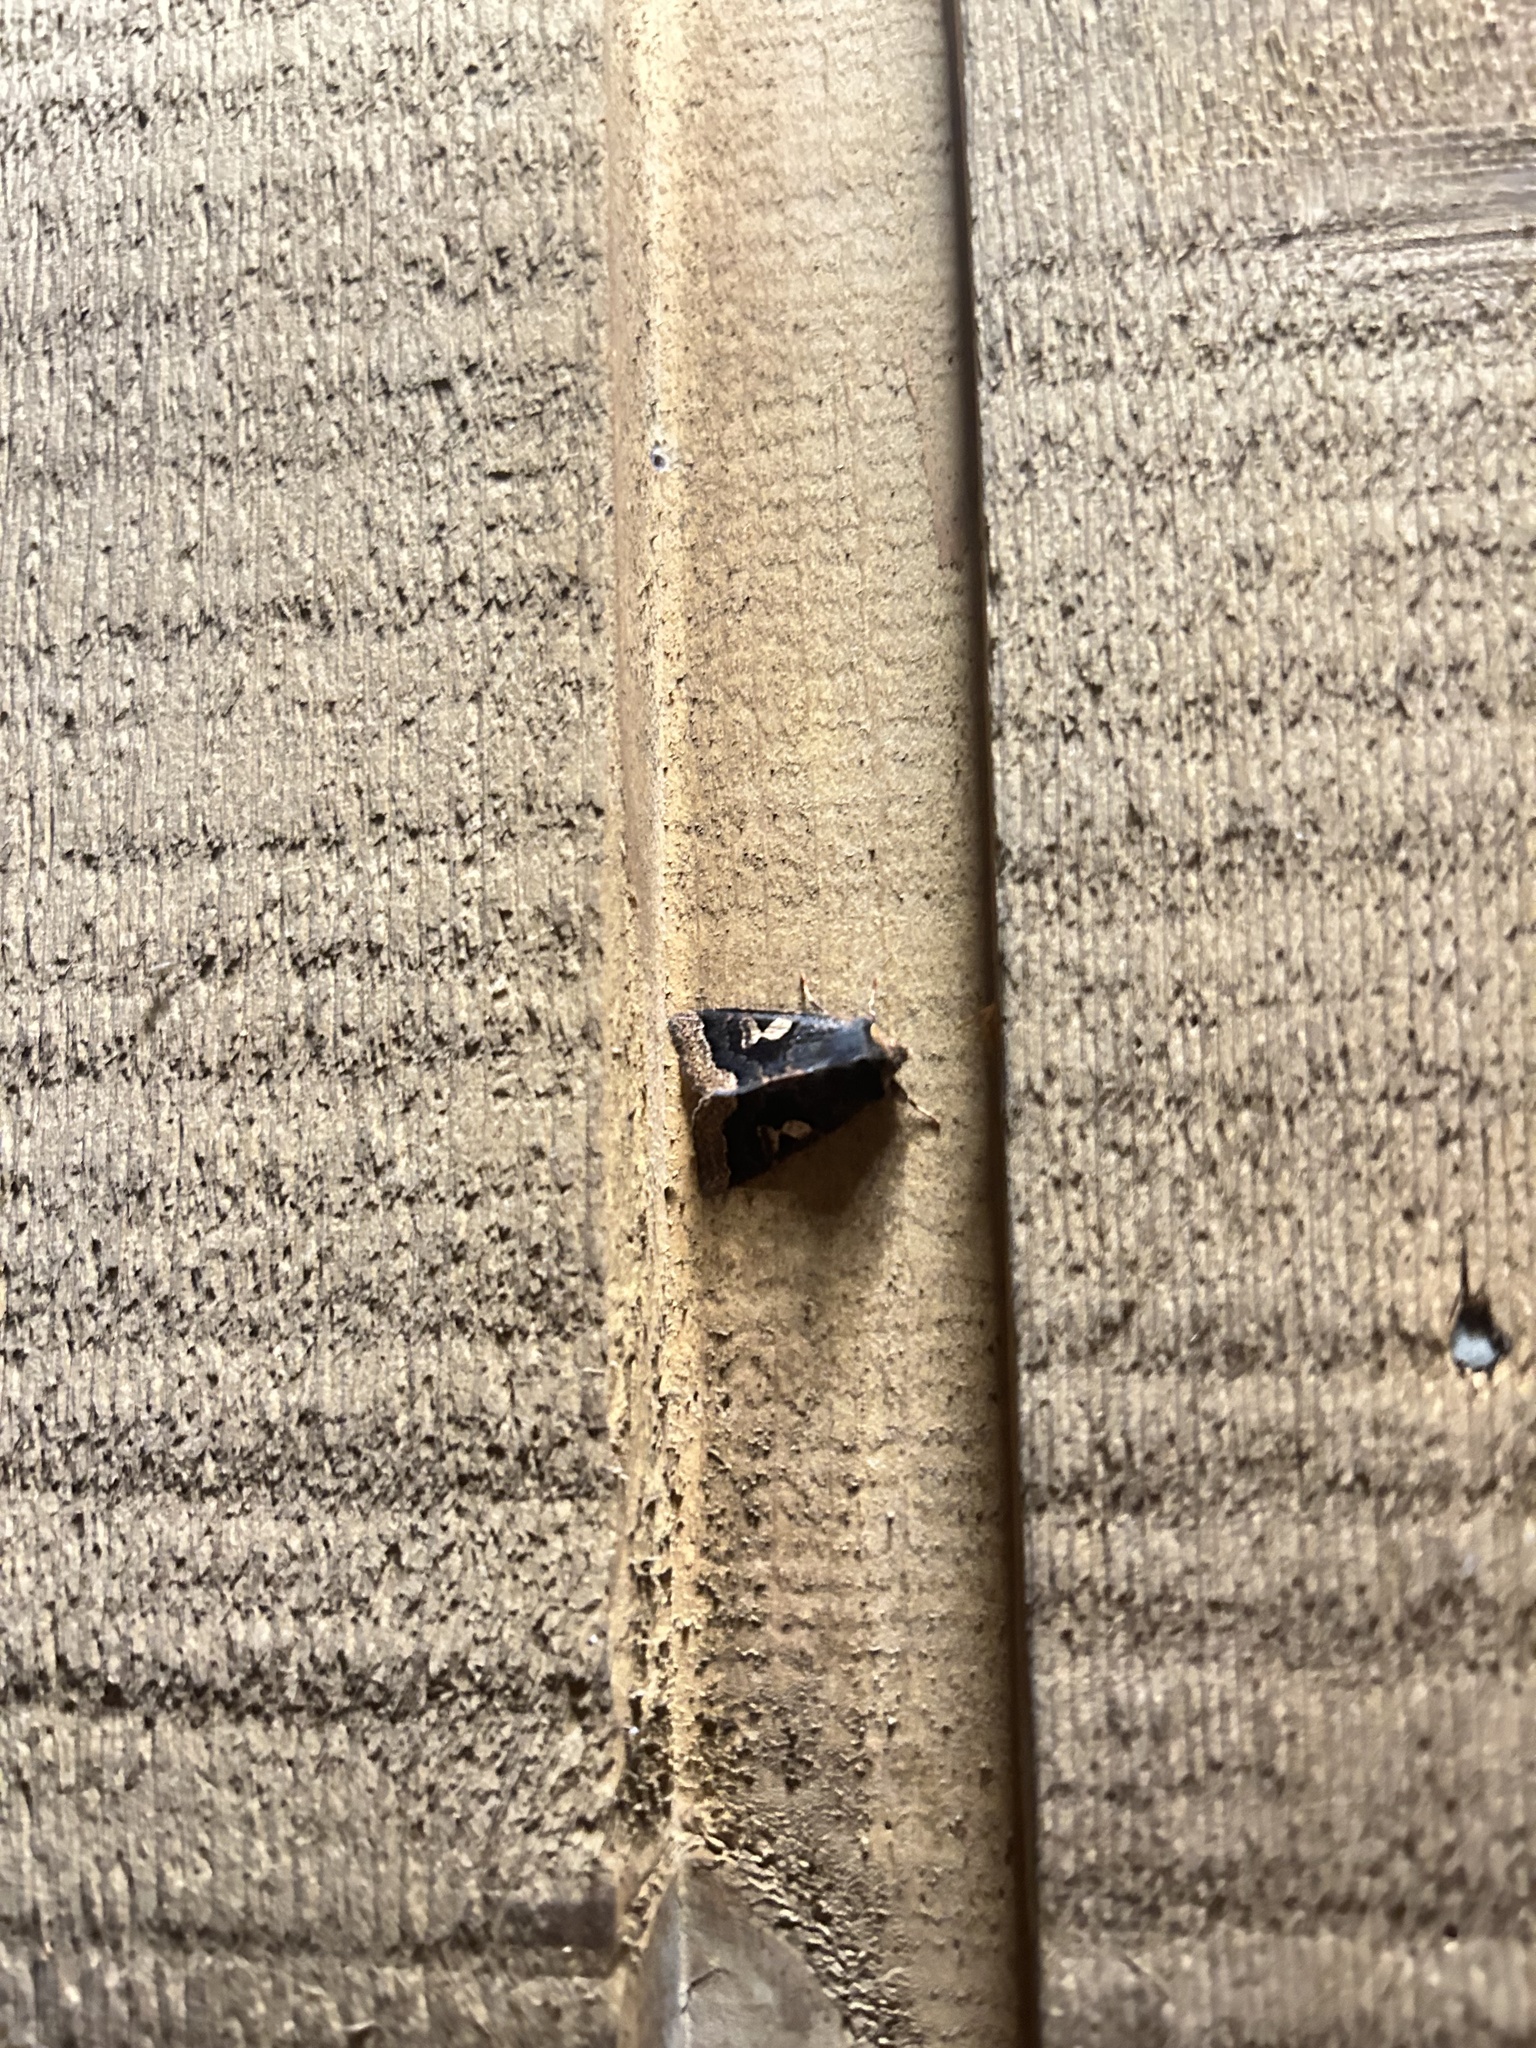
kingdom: Animalia
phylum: Arthropoda
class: Insecta
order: Lepidoptera
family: Noctuidae
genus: Orthosia
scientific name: Orthosia praeses
